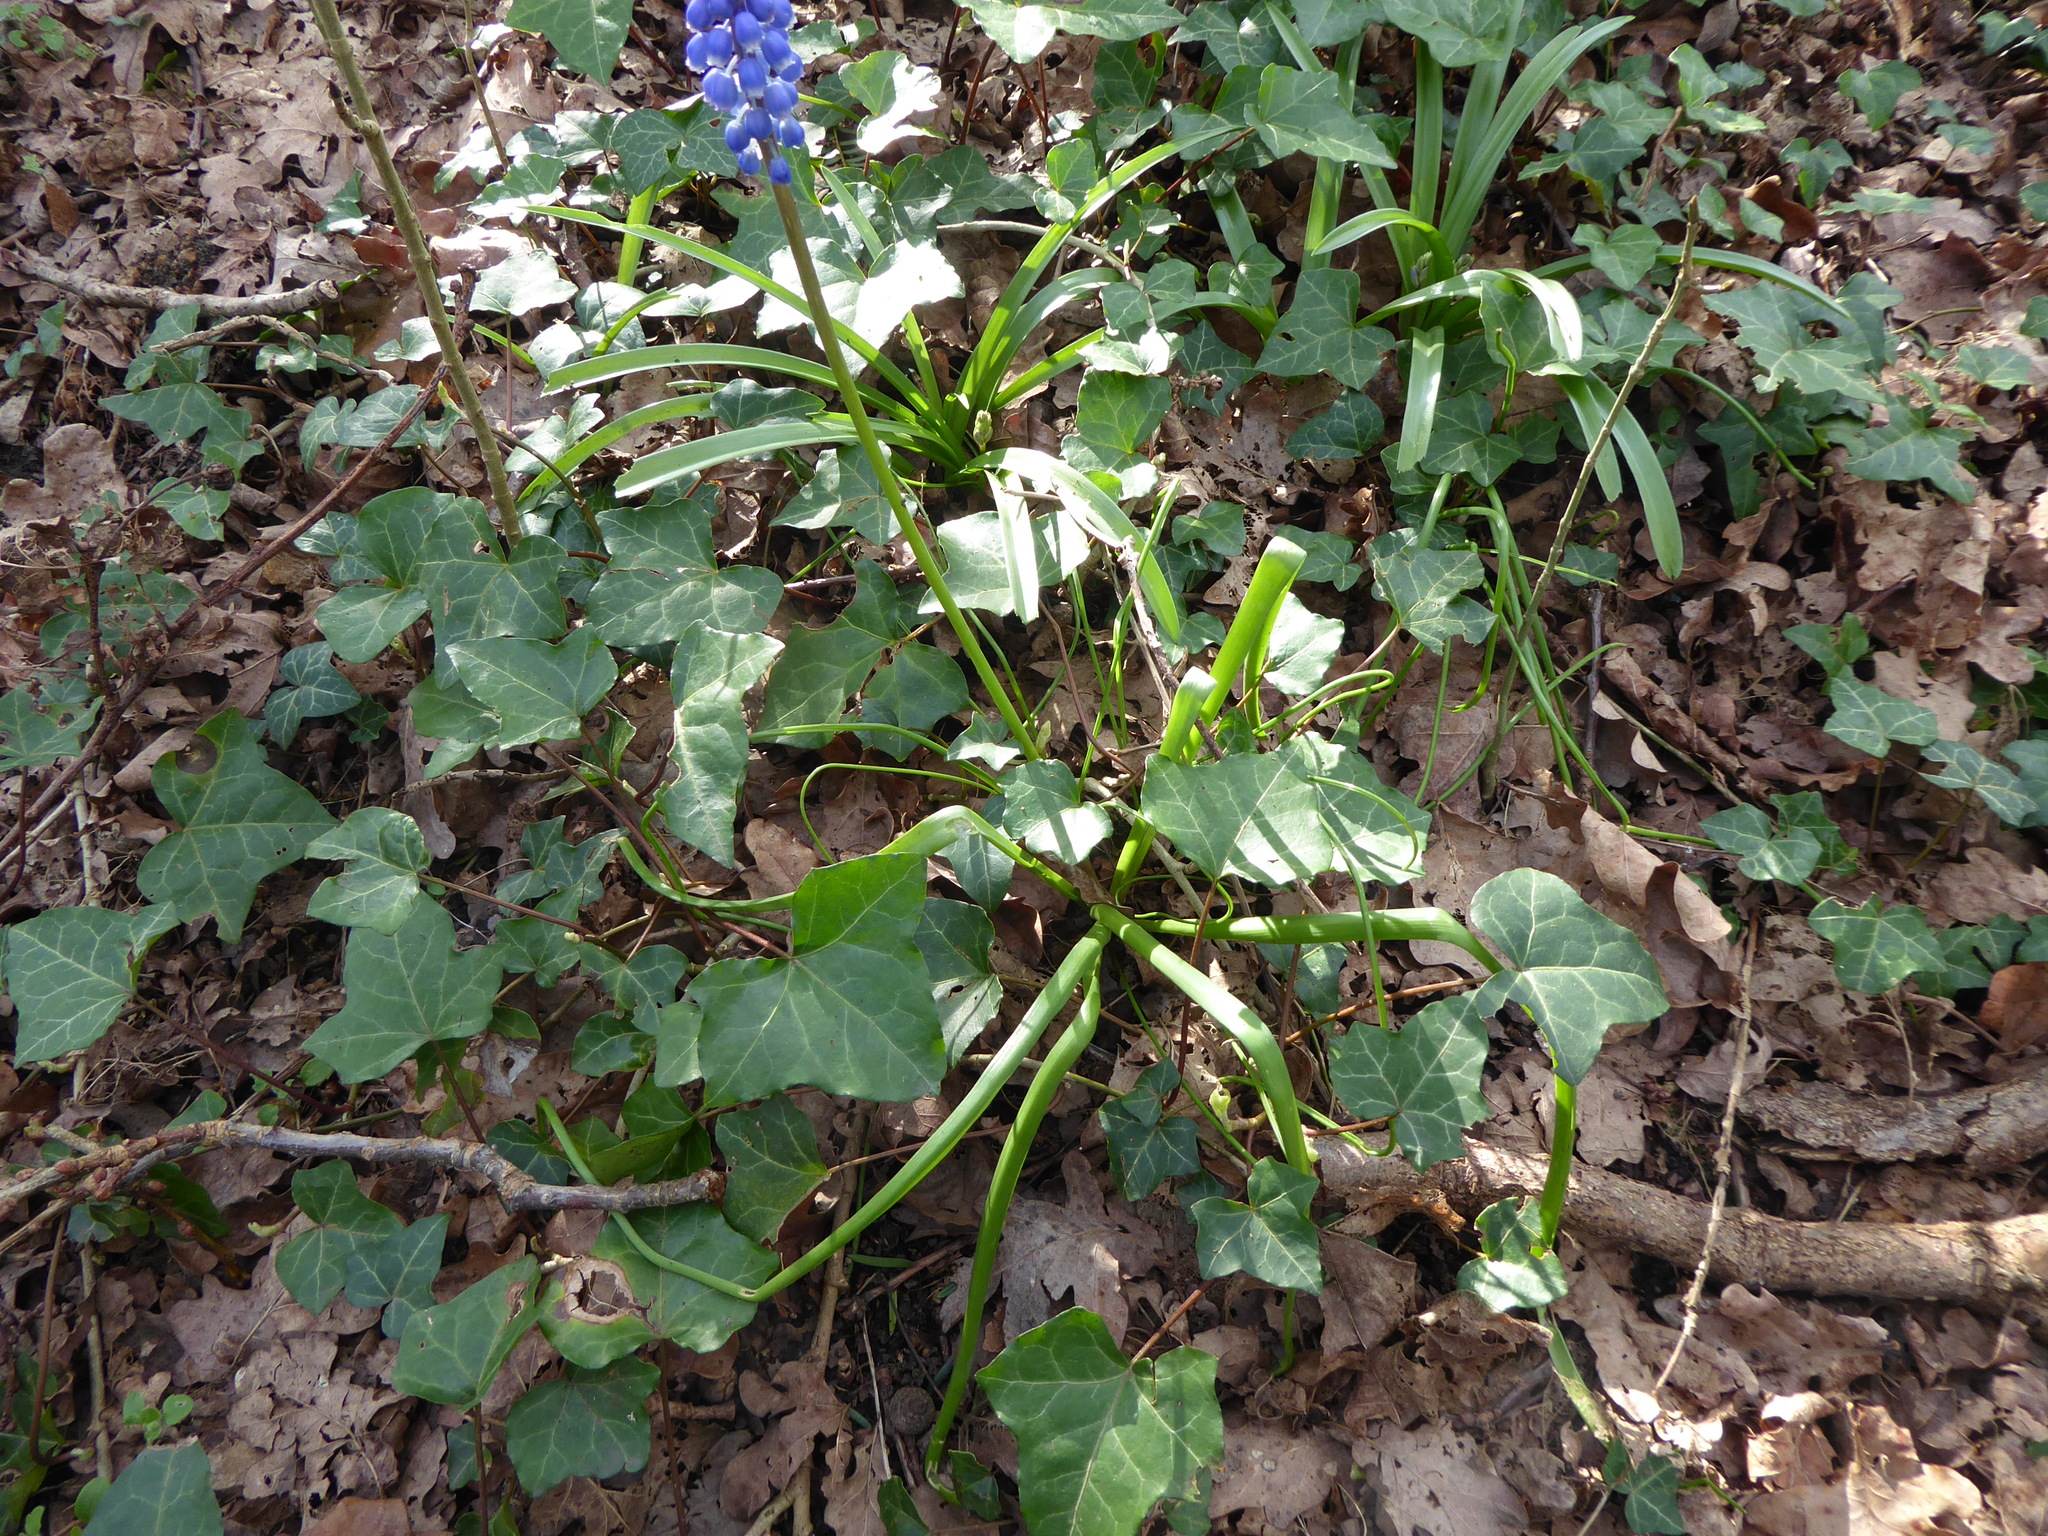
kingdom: Plantae
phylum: Tracheophyta
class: Liliopsida
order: Asparagales
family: Asparagaceae
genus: Muscari
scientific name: Muscari armeniacum
